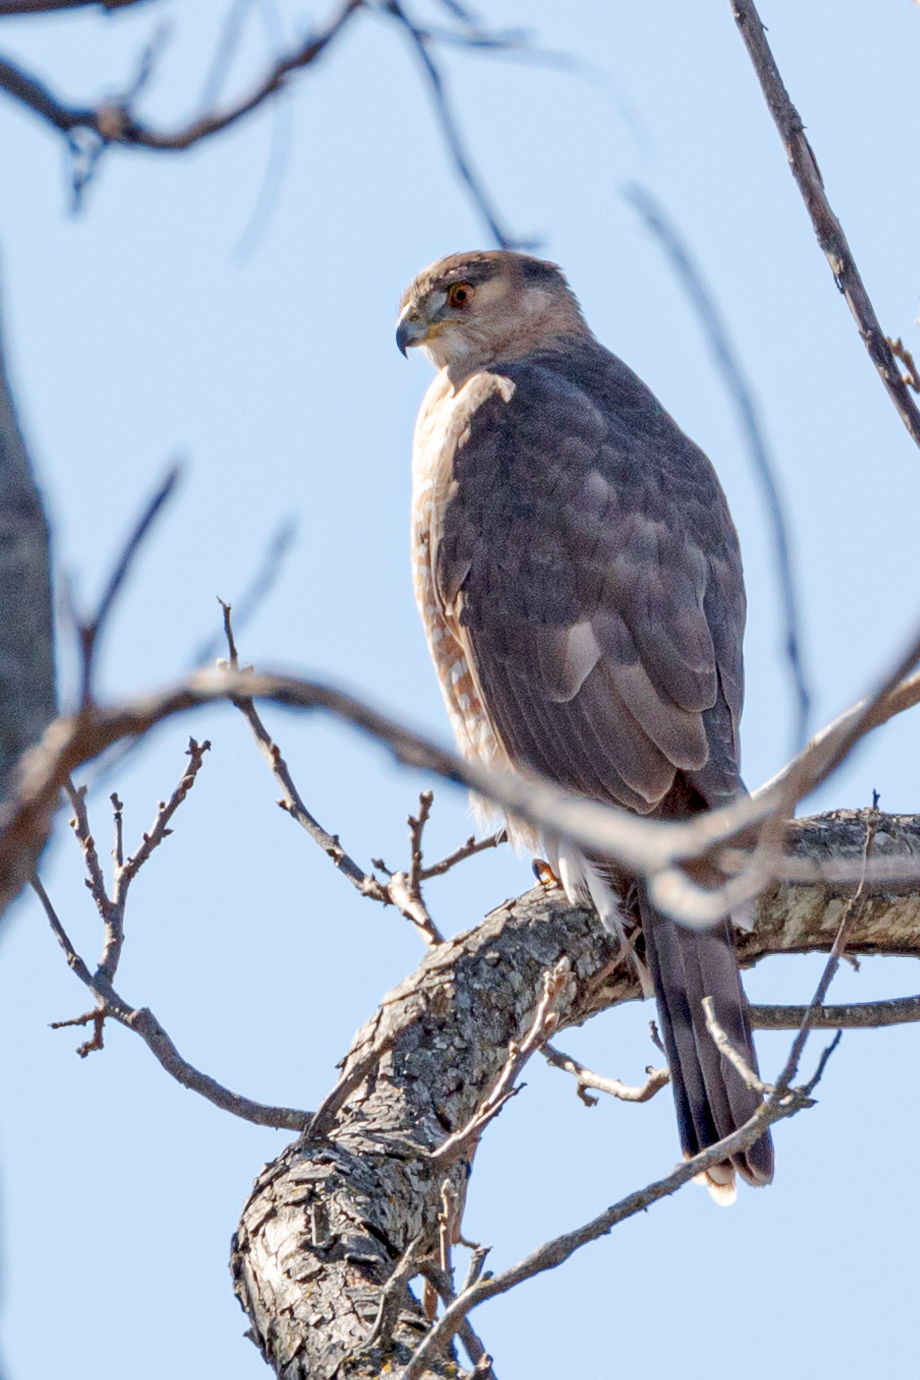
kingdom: Animalia
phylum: Chordata
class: Aves
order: Accipitriformes
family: Accipitridae
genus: Accipiter
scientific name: Accipiter cooperii
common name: Cooper's hawk
